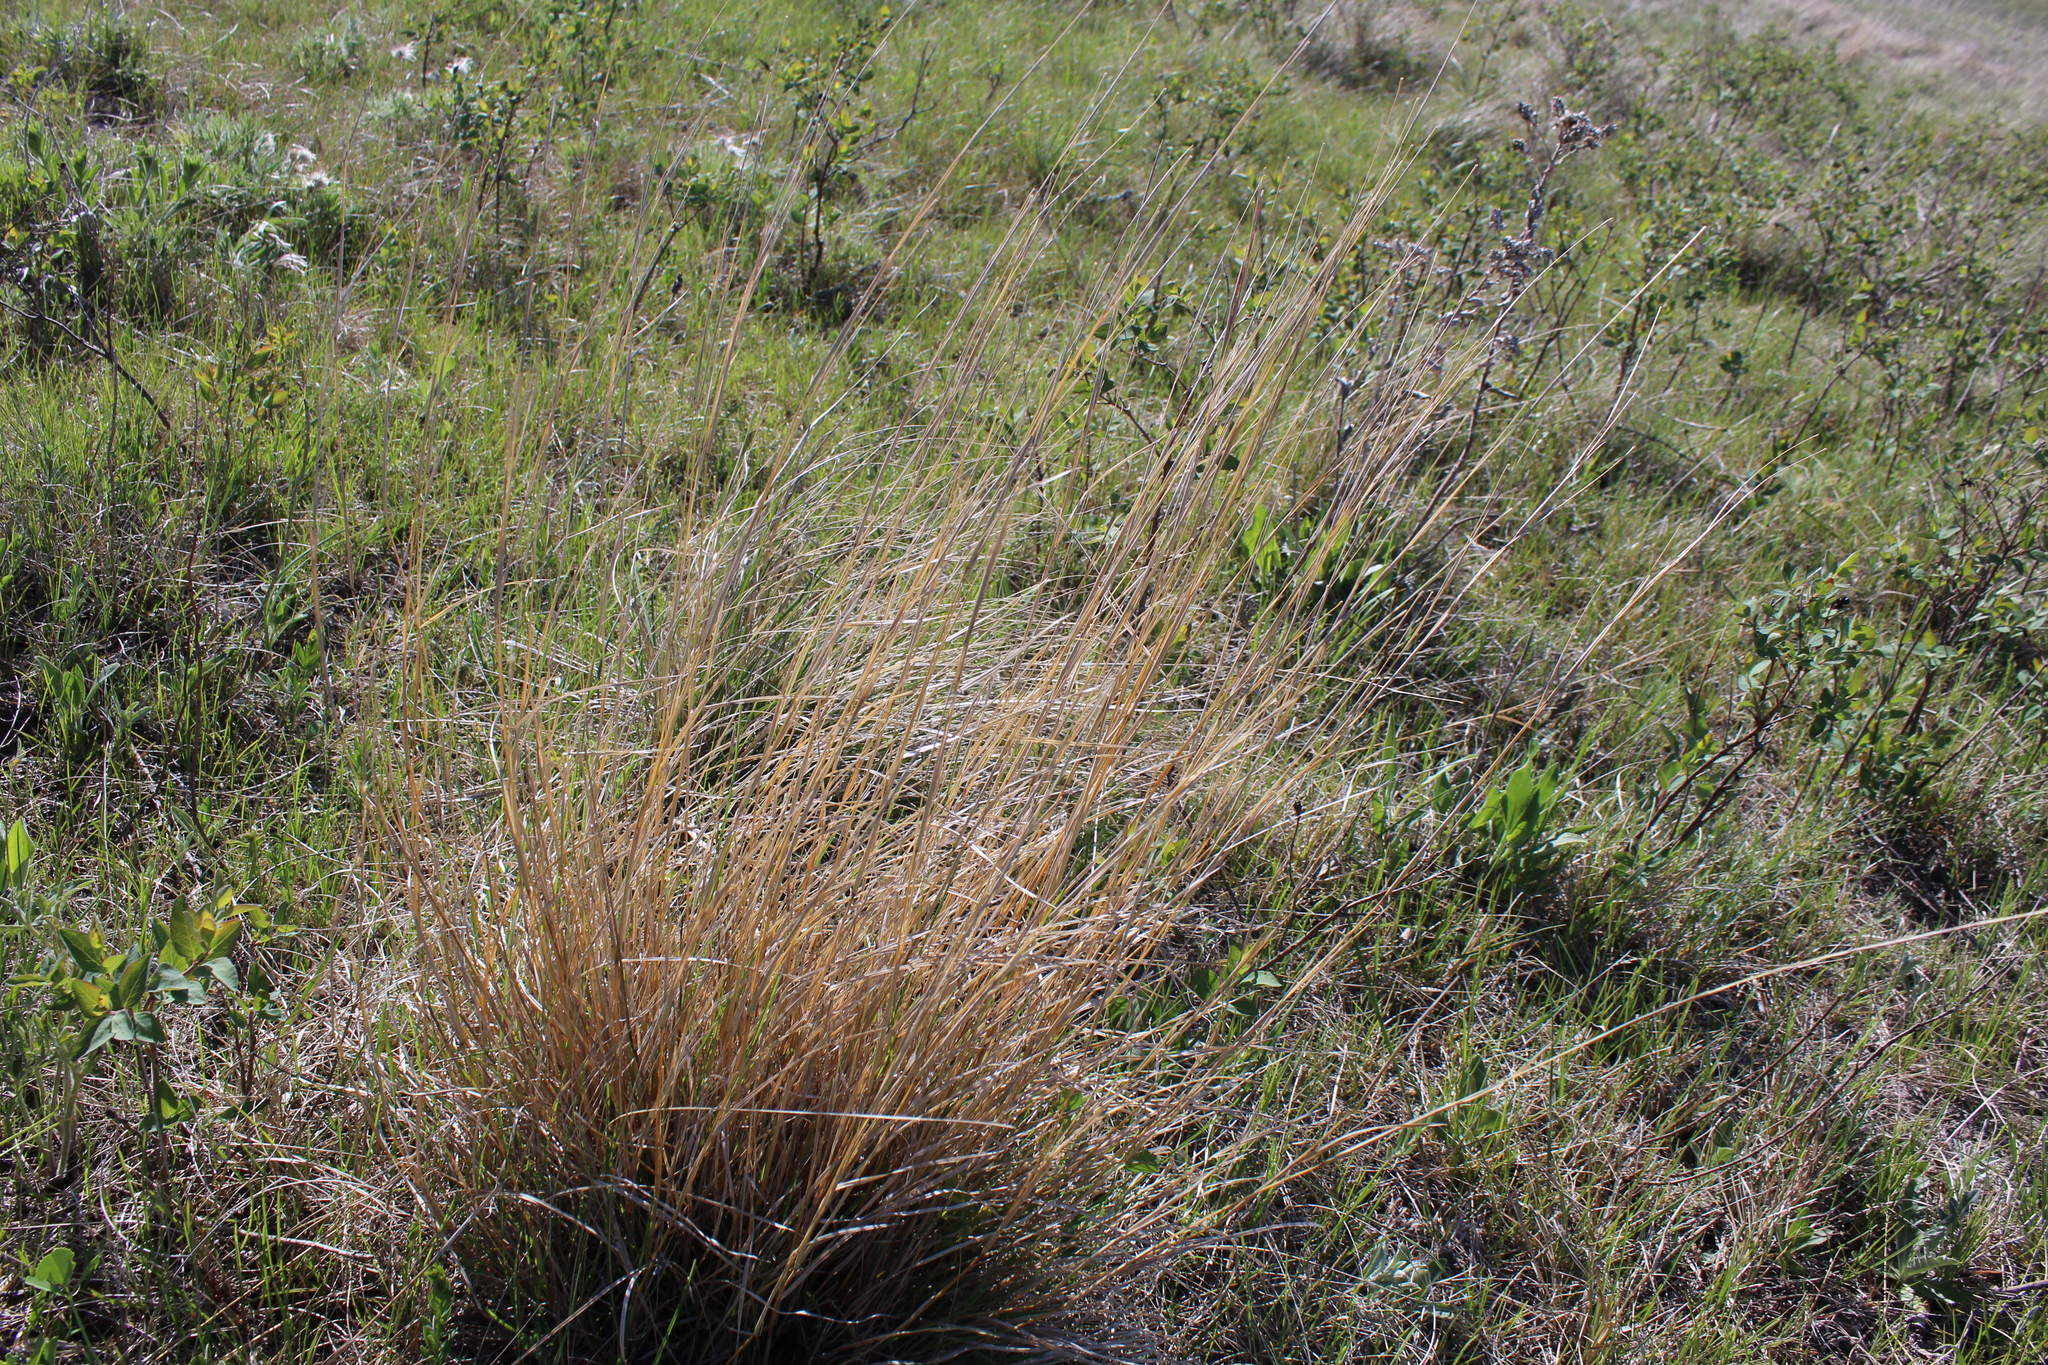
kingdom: Plantae
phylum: Tracheophyta
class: Liliopsida
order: Poales
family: Poaceae
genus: Schizachyrium
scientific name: Schizachyrium scoparium
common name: Little bluestem
